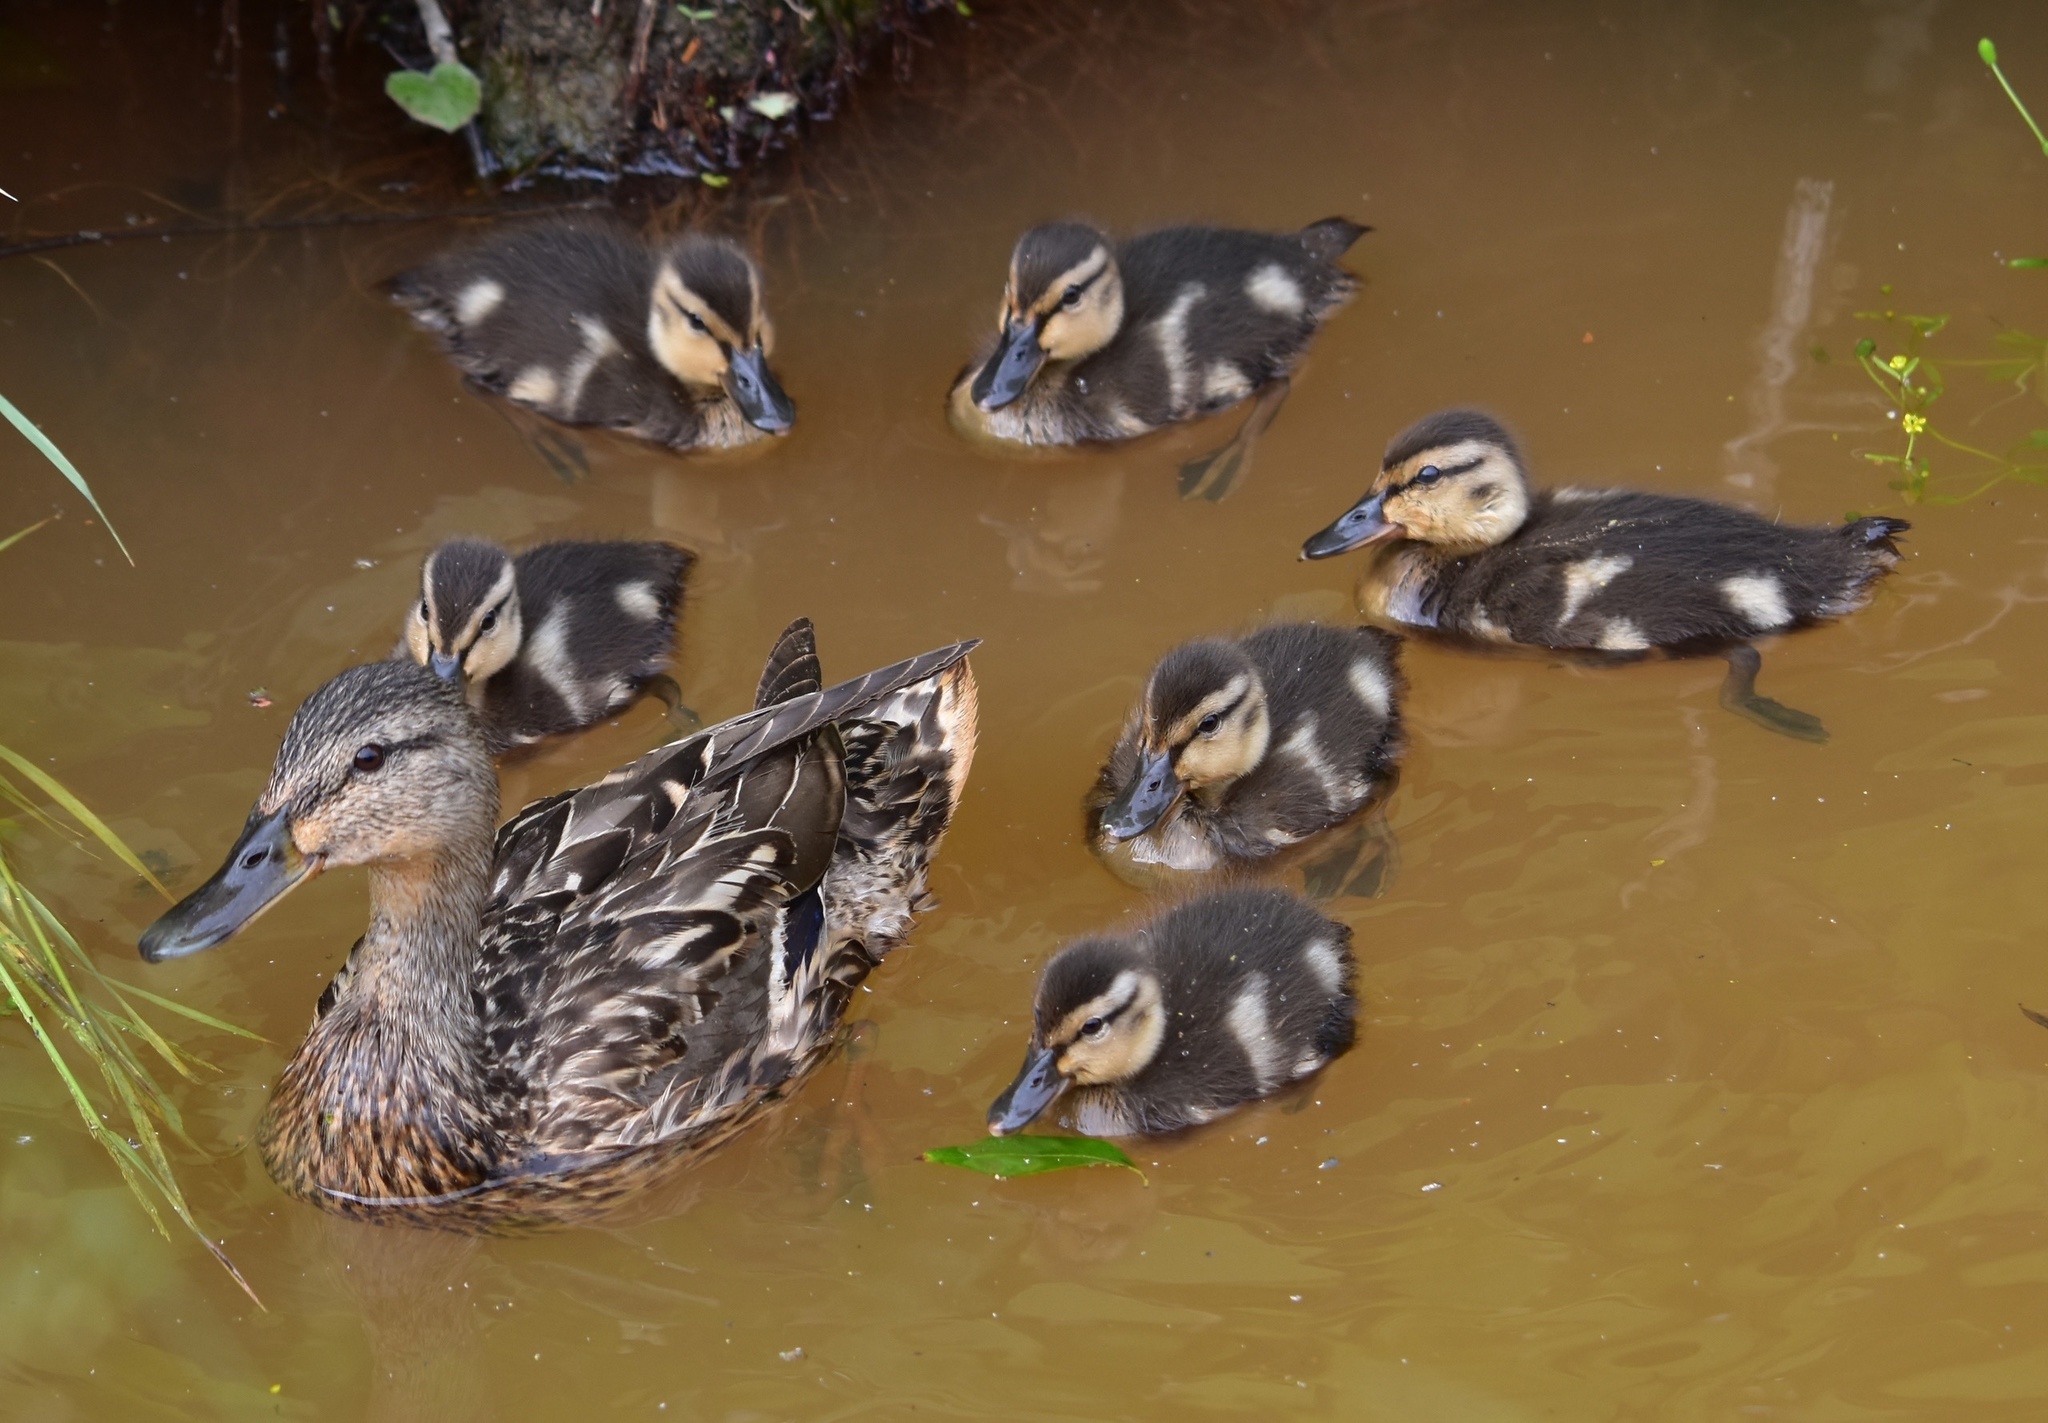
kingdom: Animalia
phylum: Chordata
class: Aves
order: Anseriformes
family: Anatidae
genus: Anas
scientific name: Anas platyrhynchos
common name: Mallard
